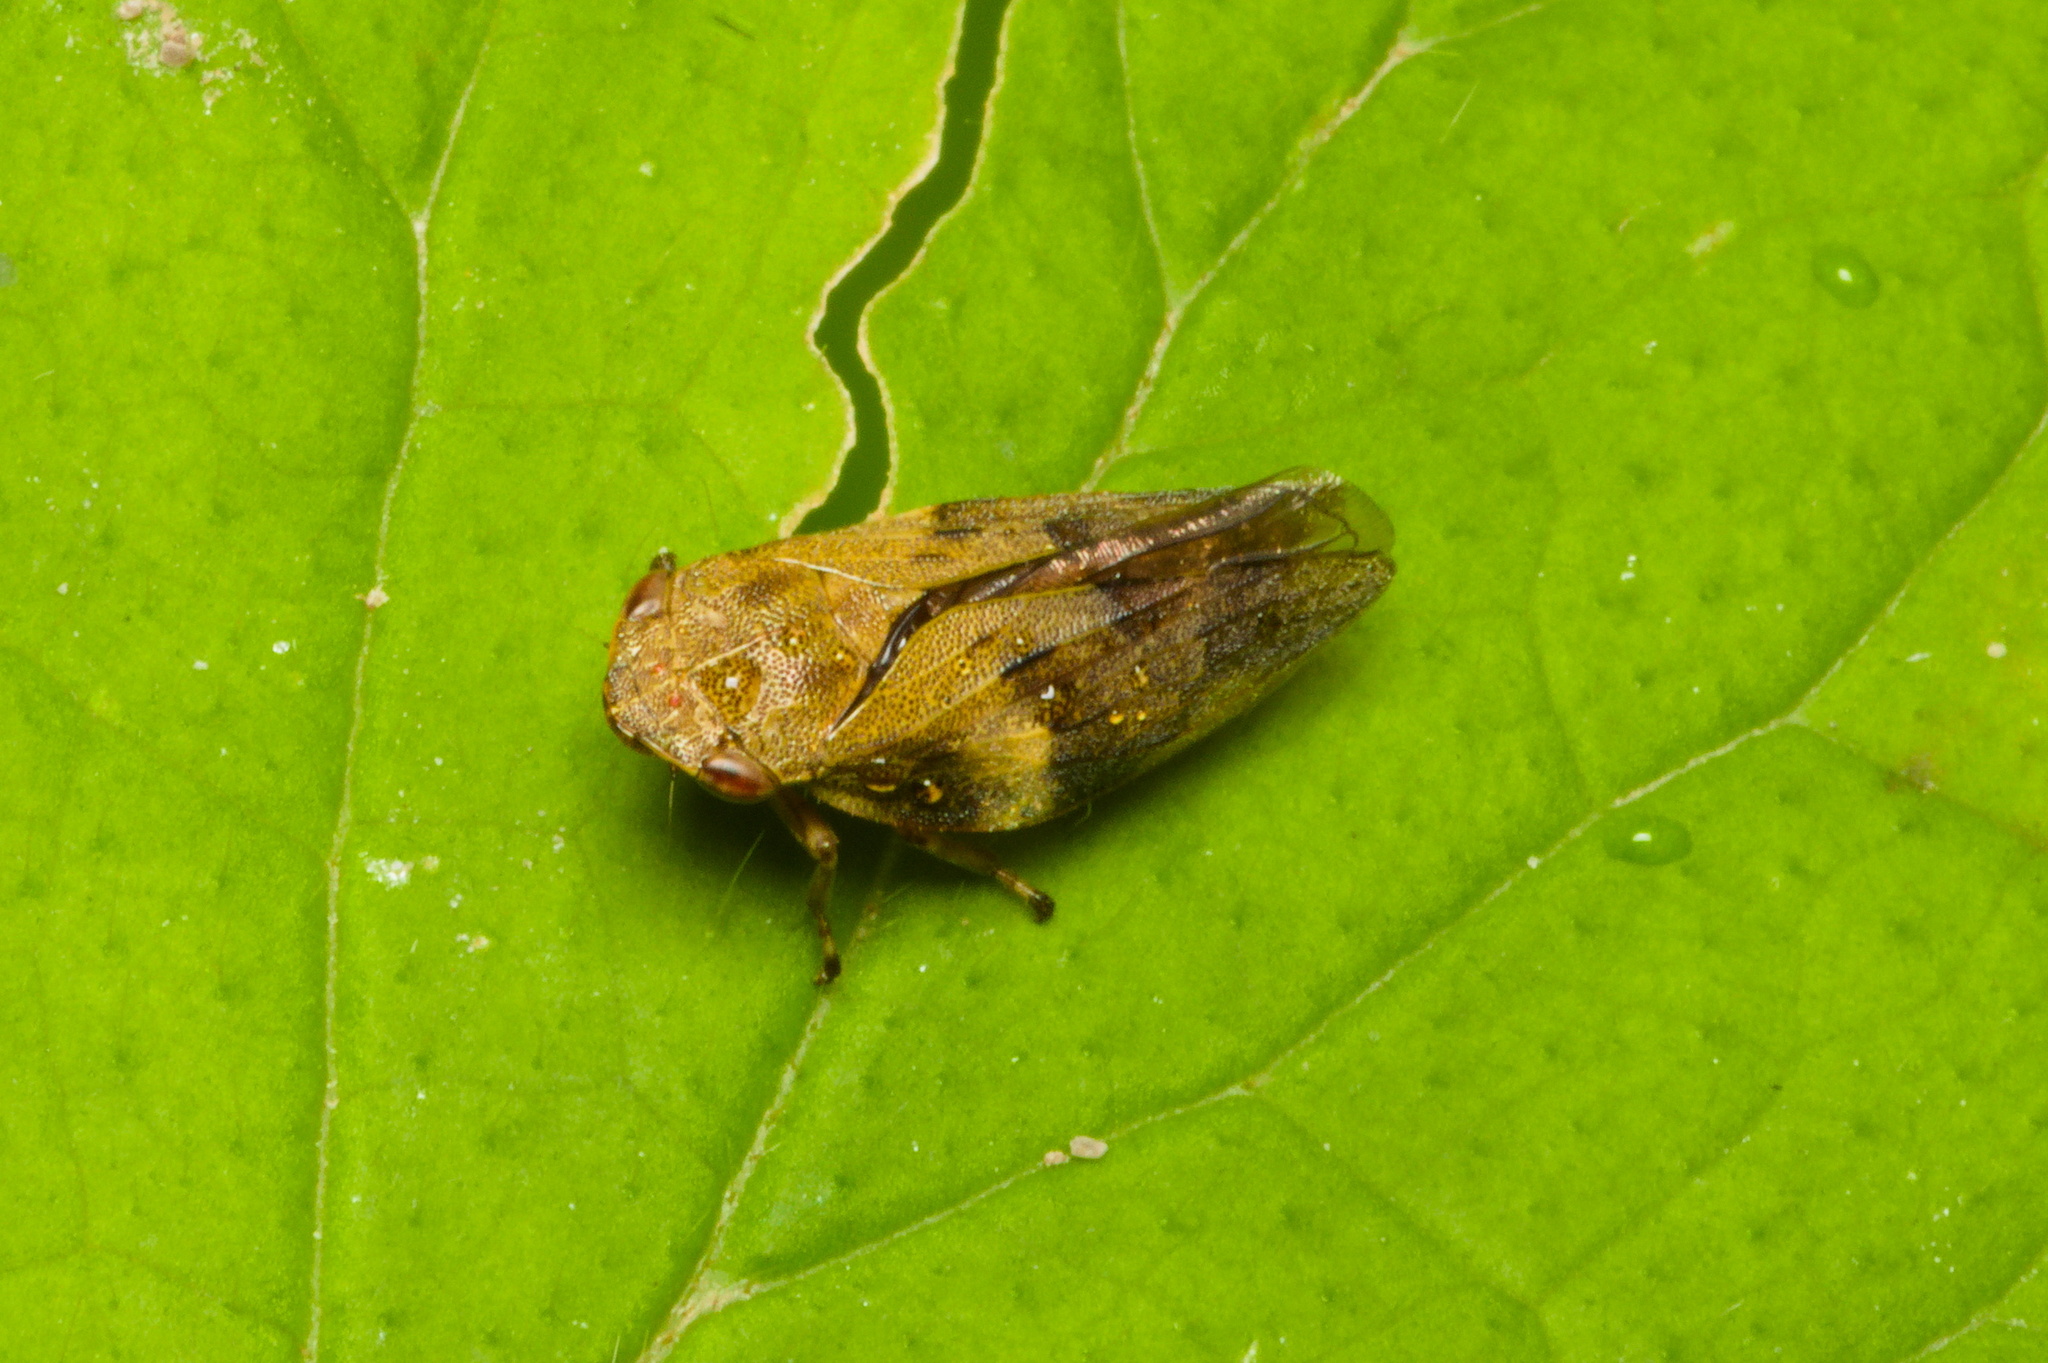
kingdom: Animalia
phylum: Arthropoda
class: Insecta
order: Hemiptera
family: Aphrophoridae
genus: Aphrophora
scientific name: Aphrophora alni
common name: European alder spittlebug
